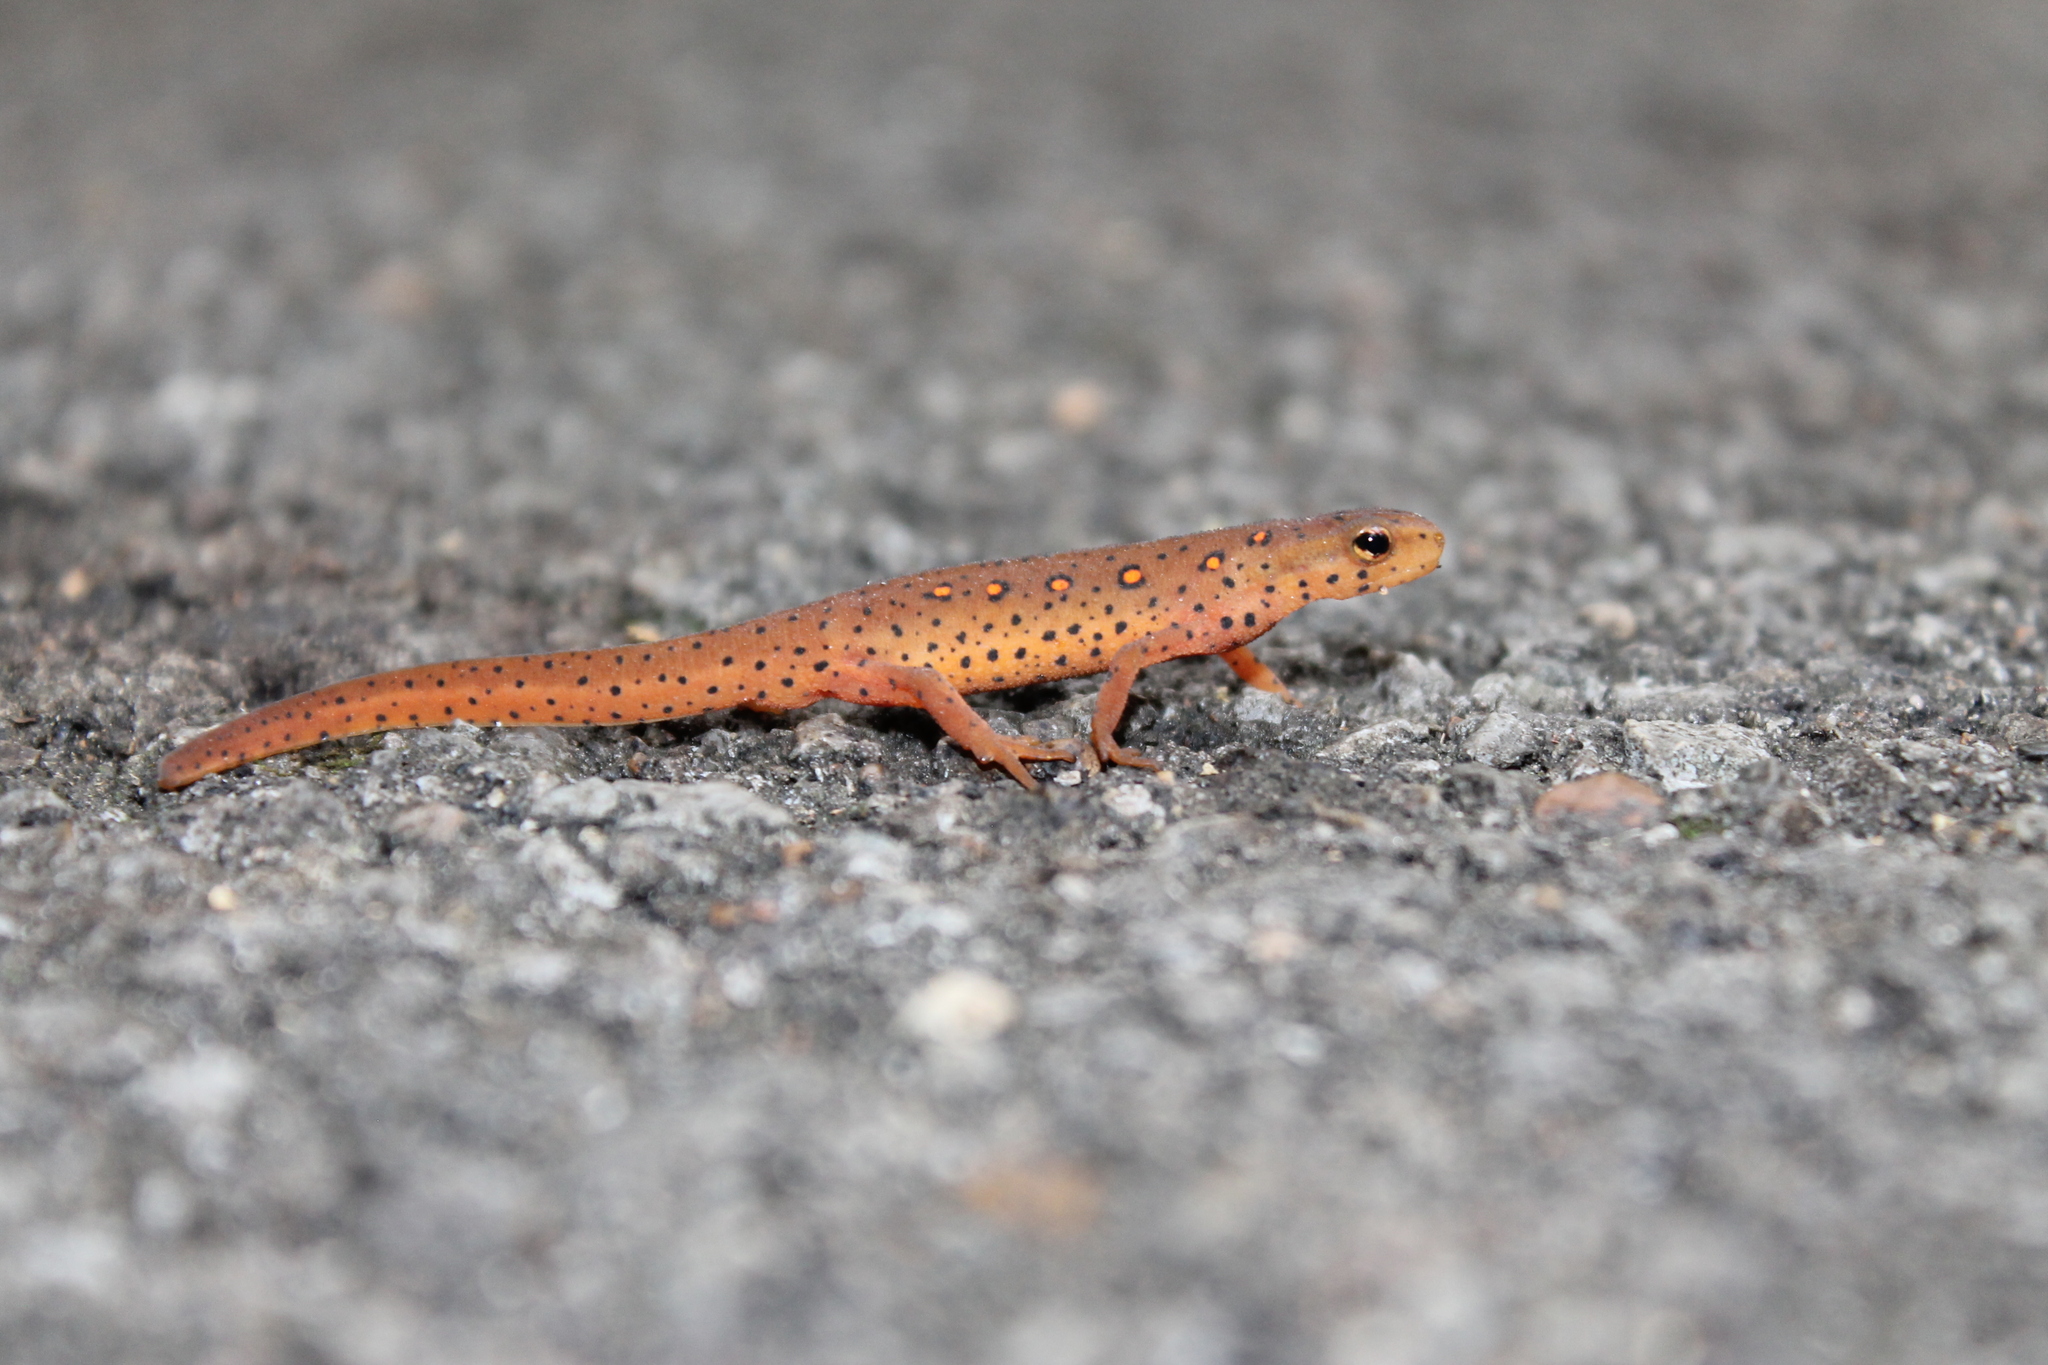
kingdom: Animalia
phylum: Chordata
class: Amphibia
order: Caudata
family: Salamandridae
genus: Notophthalmus
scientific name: Notophthalmus viridescens
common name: Eastern newt
